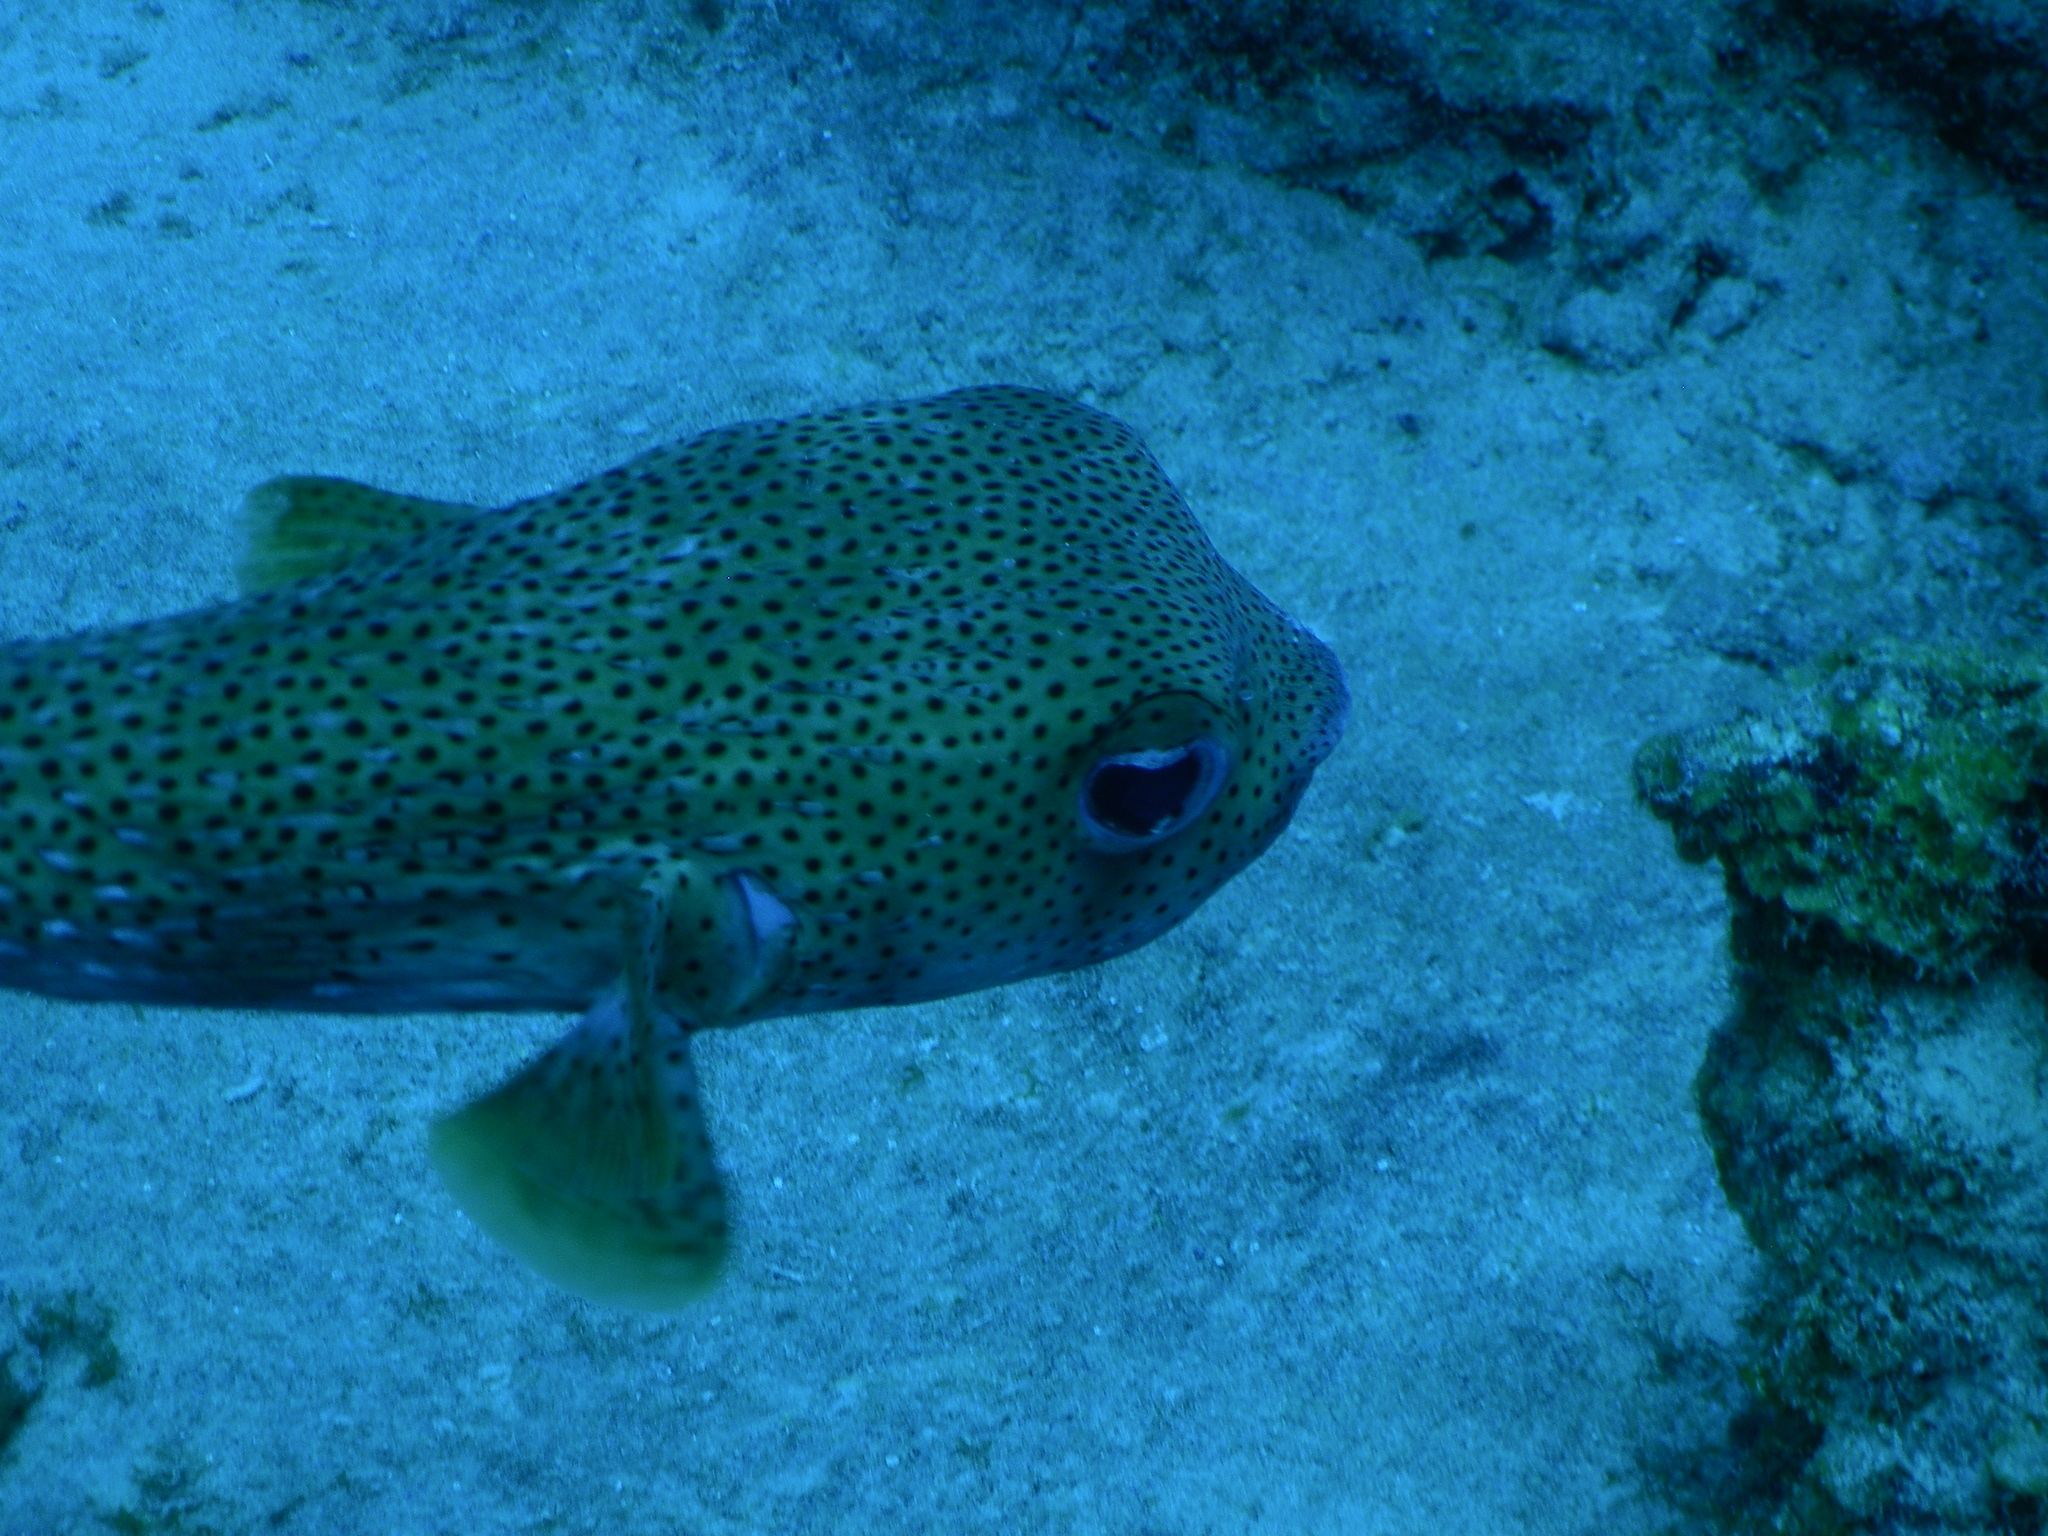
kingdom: Animalia
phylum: Chordata
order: Tetraodontiformes
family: Diodontidae
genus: Diodon
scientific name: Diodon hystrix
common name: Giant porcupinefish
